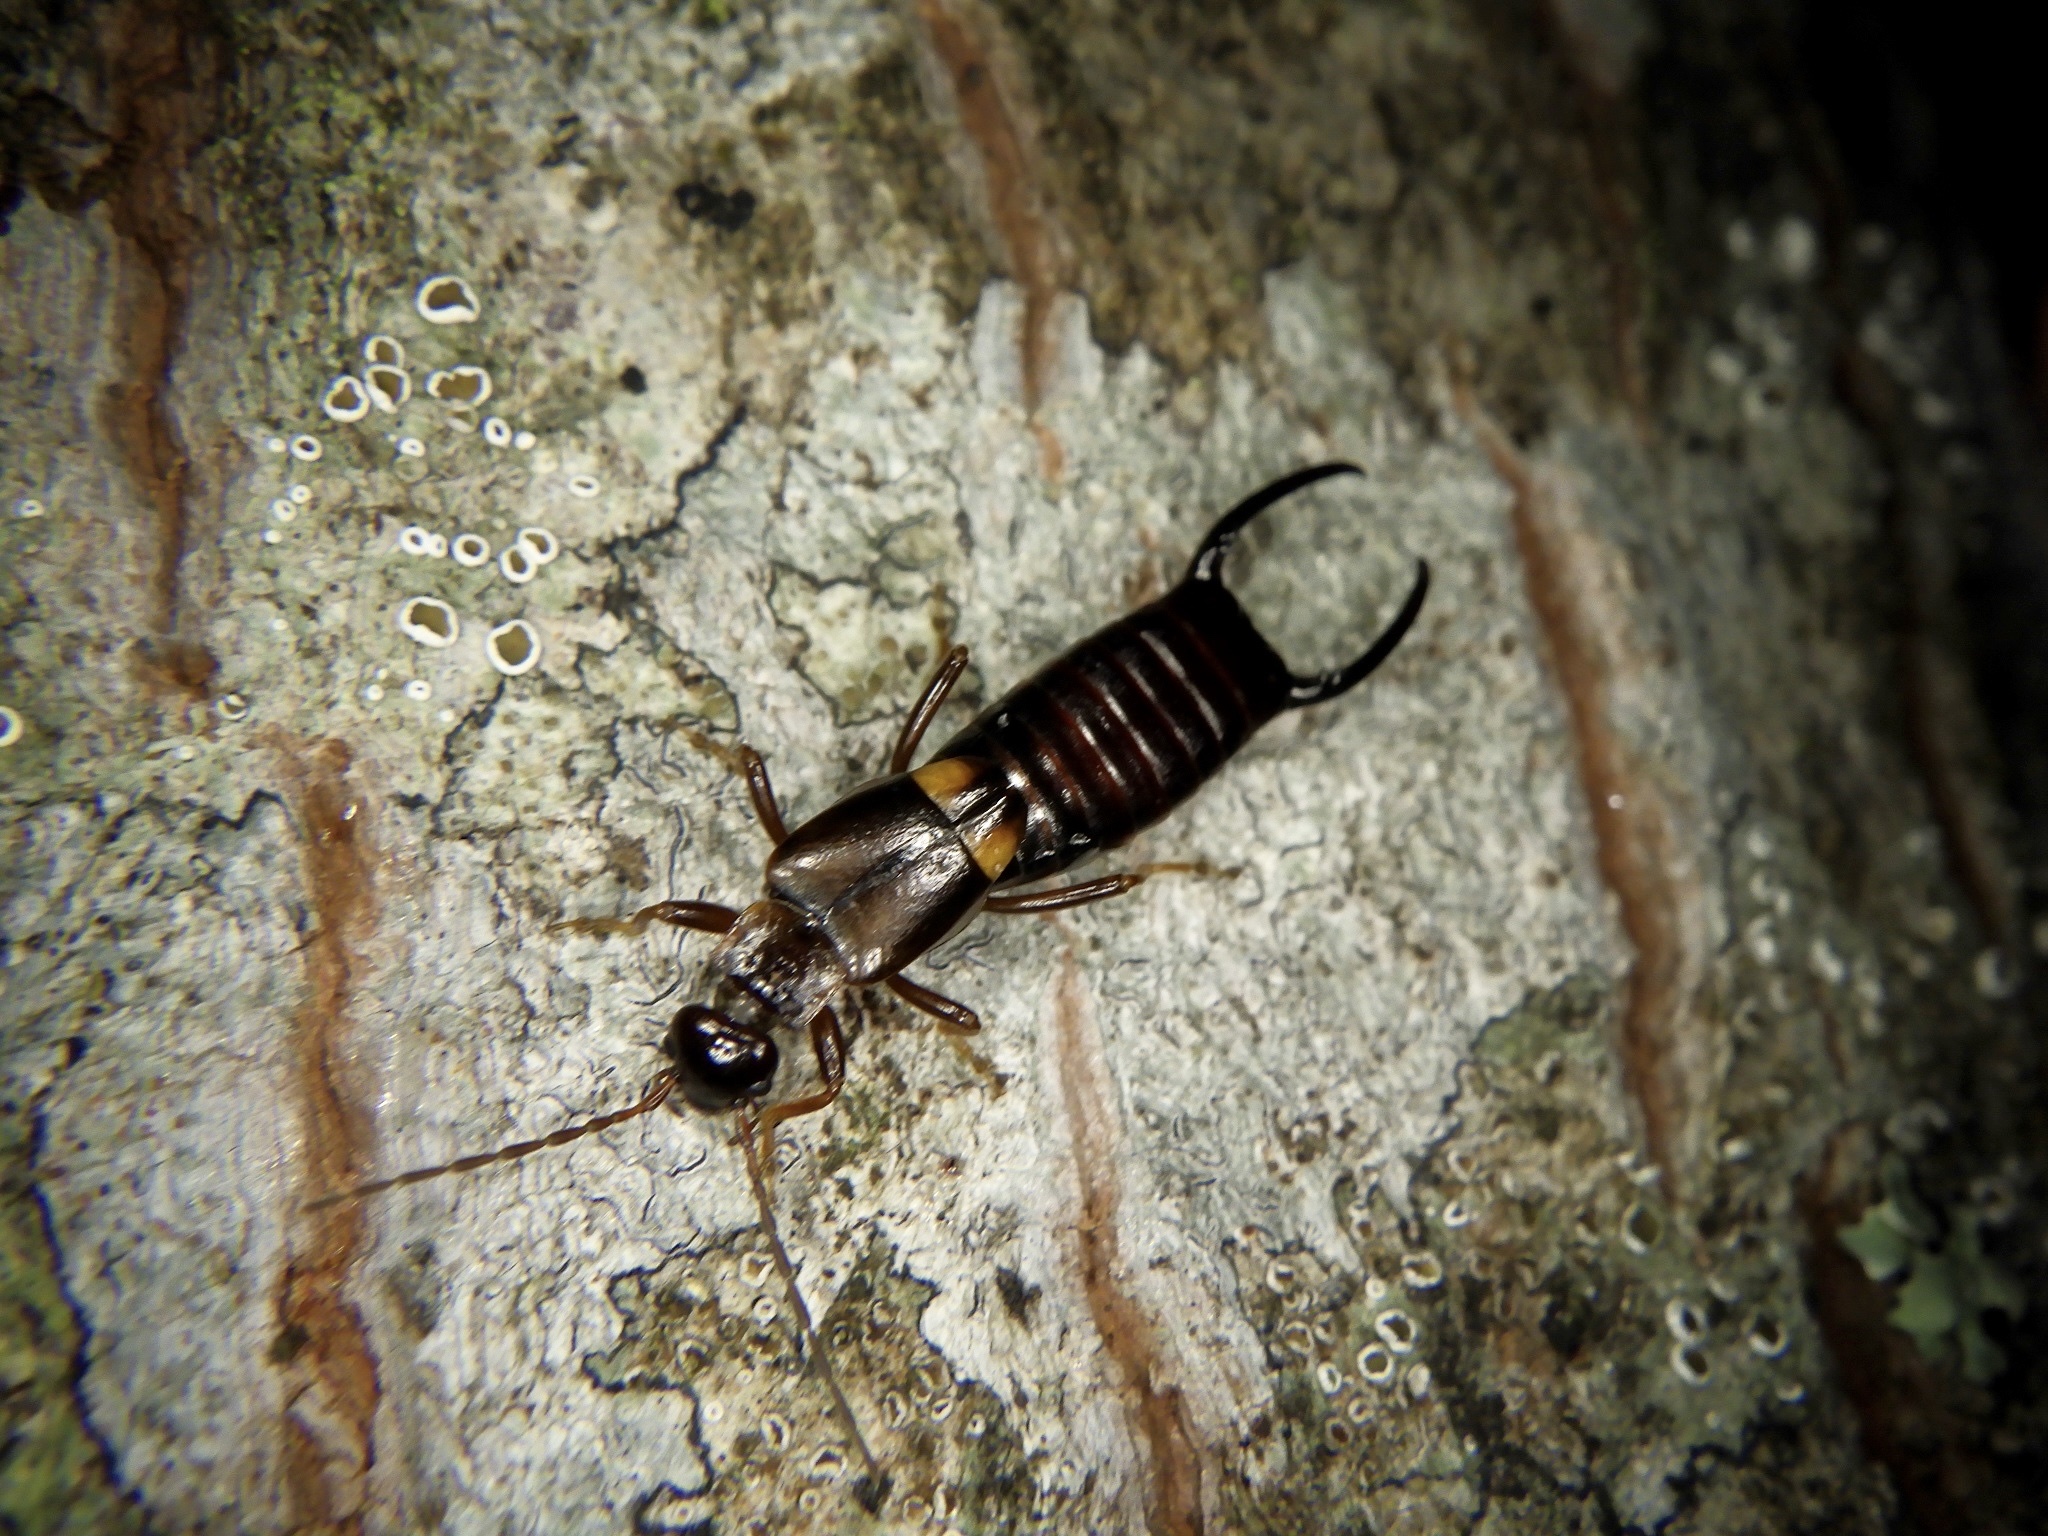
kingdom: Animalia
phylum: Arthropoda
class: Insecta
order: Dermaptera
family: Forficulidae
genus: Anechura
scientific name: Anechura harmandi
